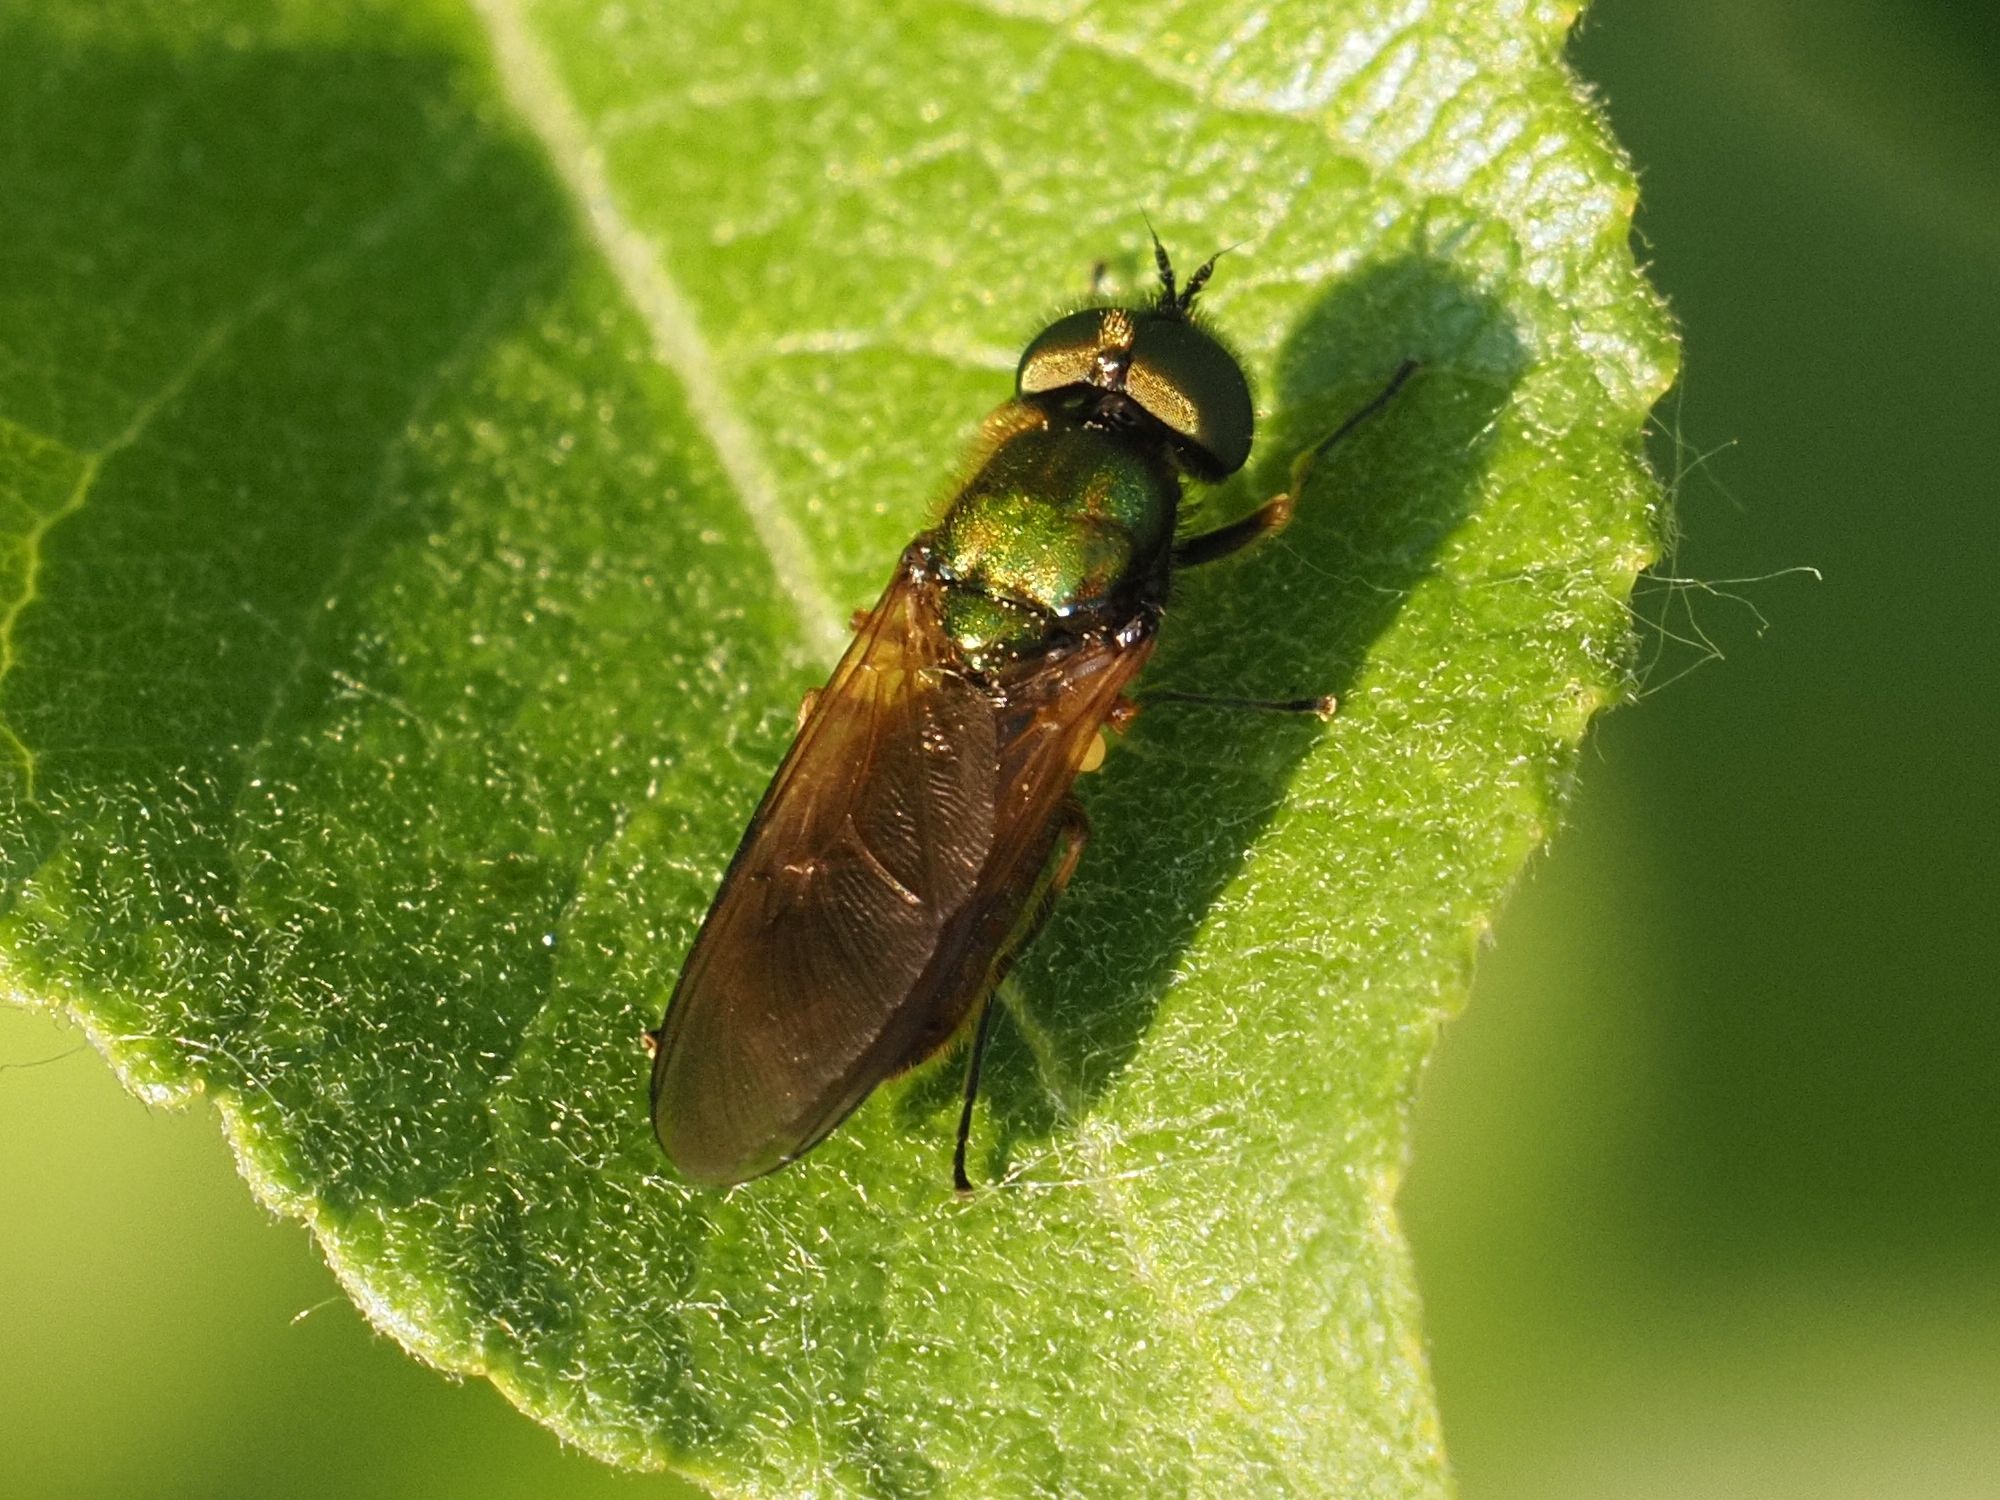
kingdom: Animalia
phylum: Arthropoda
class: Insecta
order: Diptera
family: Stratiomyidae
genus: Chloromyia
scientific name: Chloromyia formosa
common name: Soldier fly
